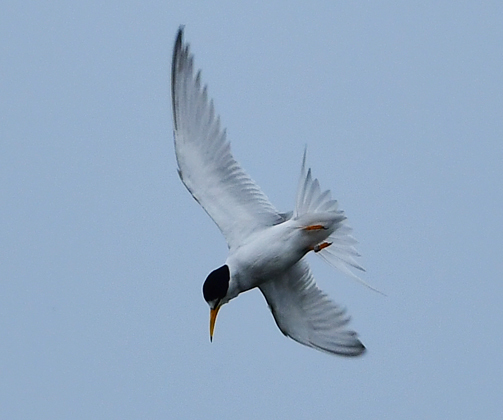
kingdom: Animalia
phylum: Chordata
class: Aves
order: Charadriiformes
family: Laridae
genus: Sternula
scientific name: Sternula antillarum
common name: Least tern
